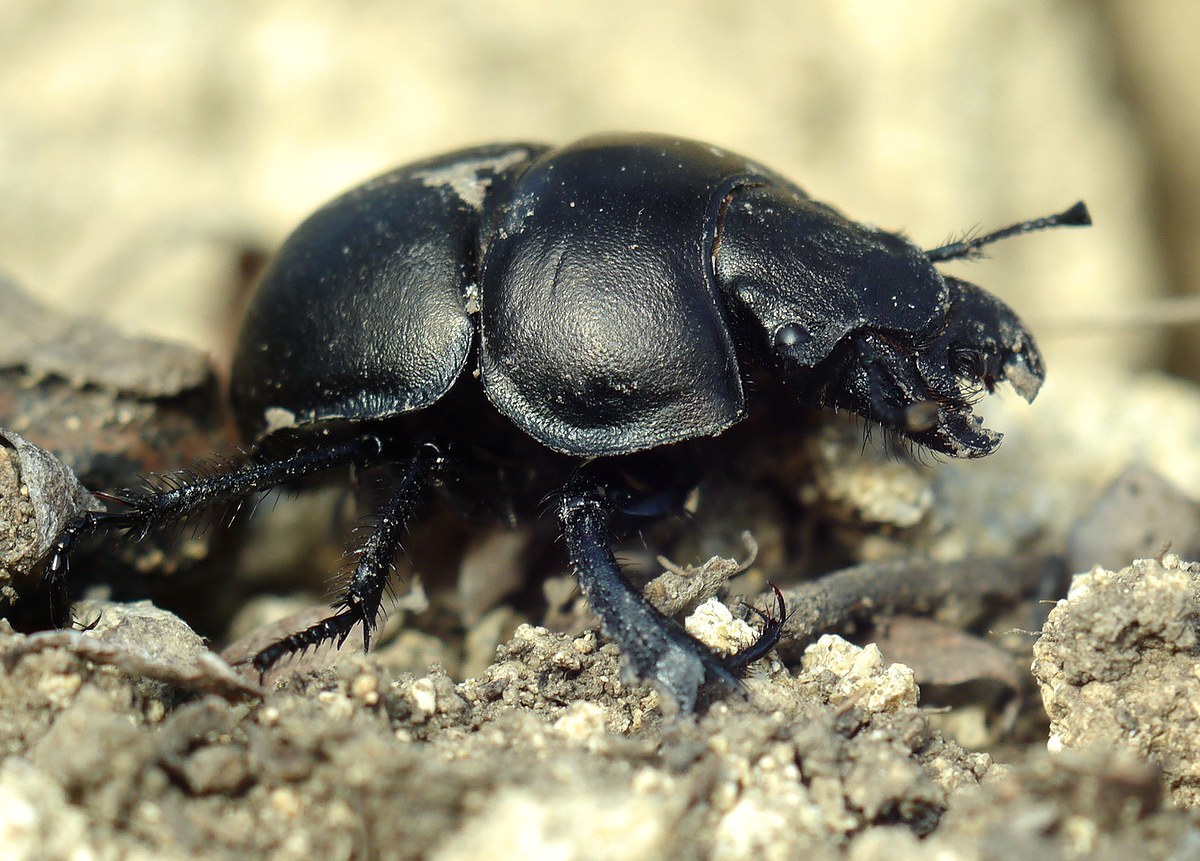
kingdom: Animalia
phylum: Arthropoda
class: Insecta
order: Coleoptera
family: Geotrupidae
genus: Lethrus
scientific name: Lethrus apterus
